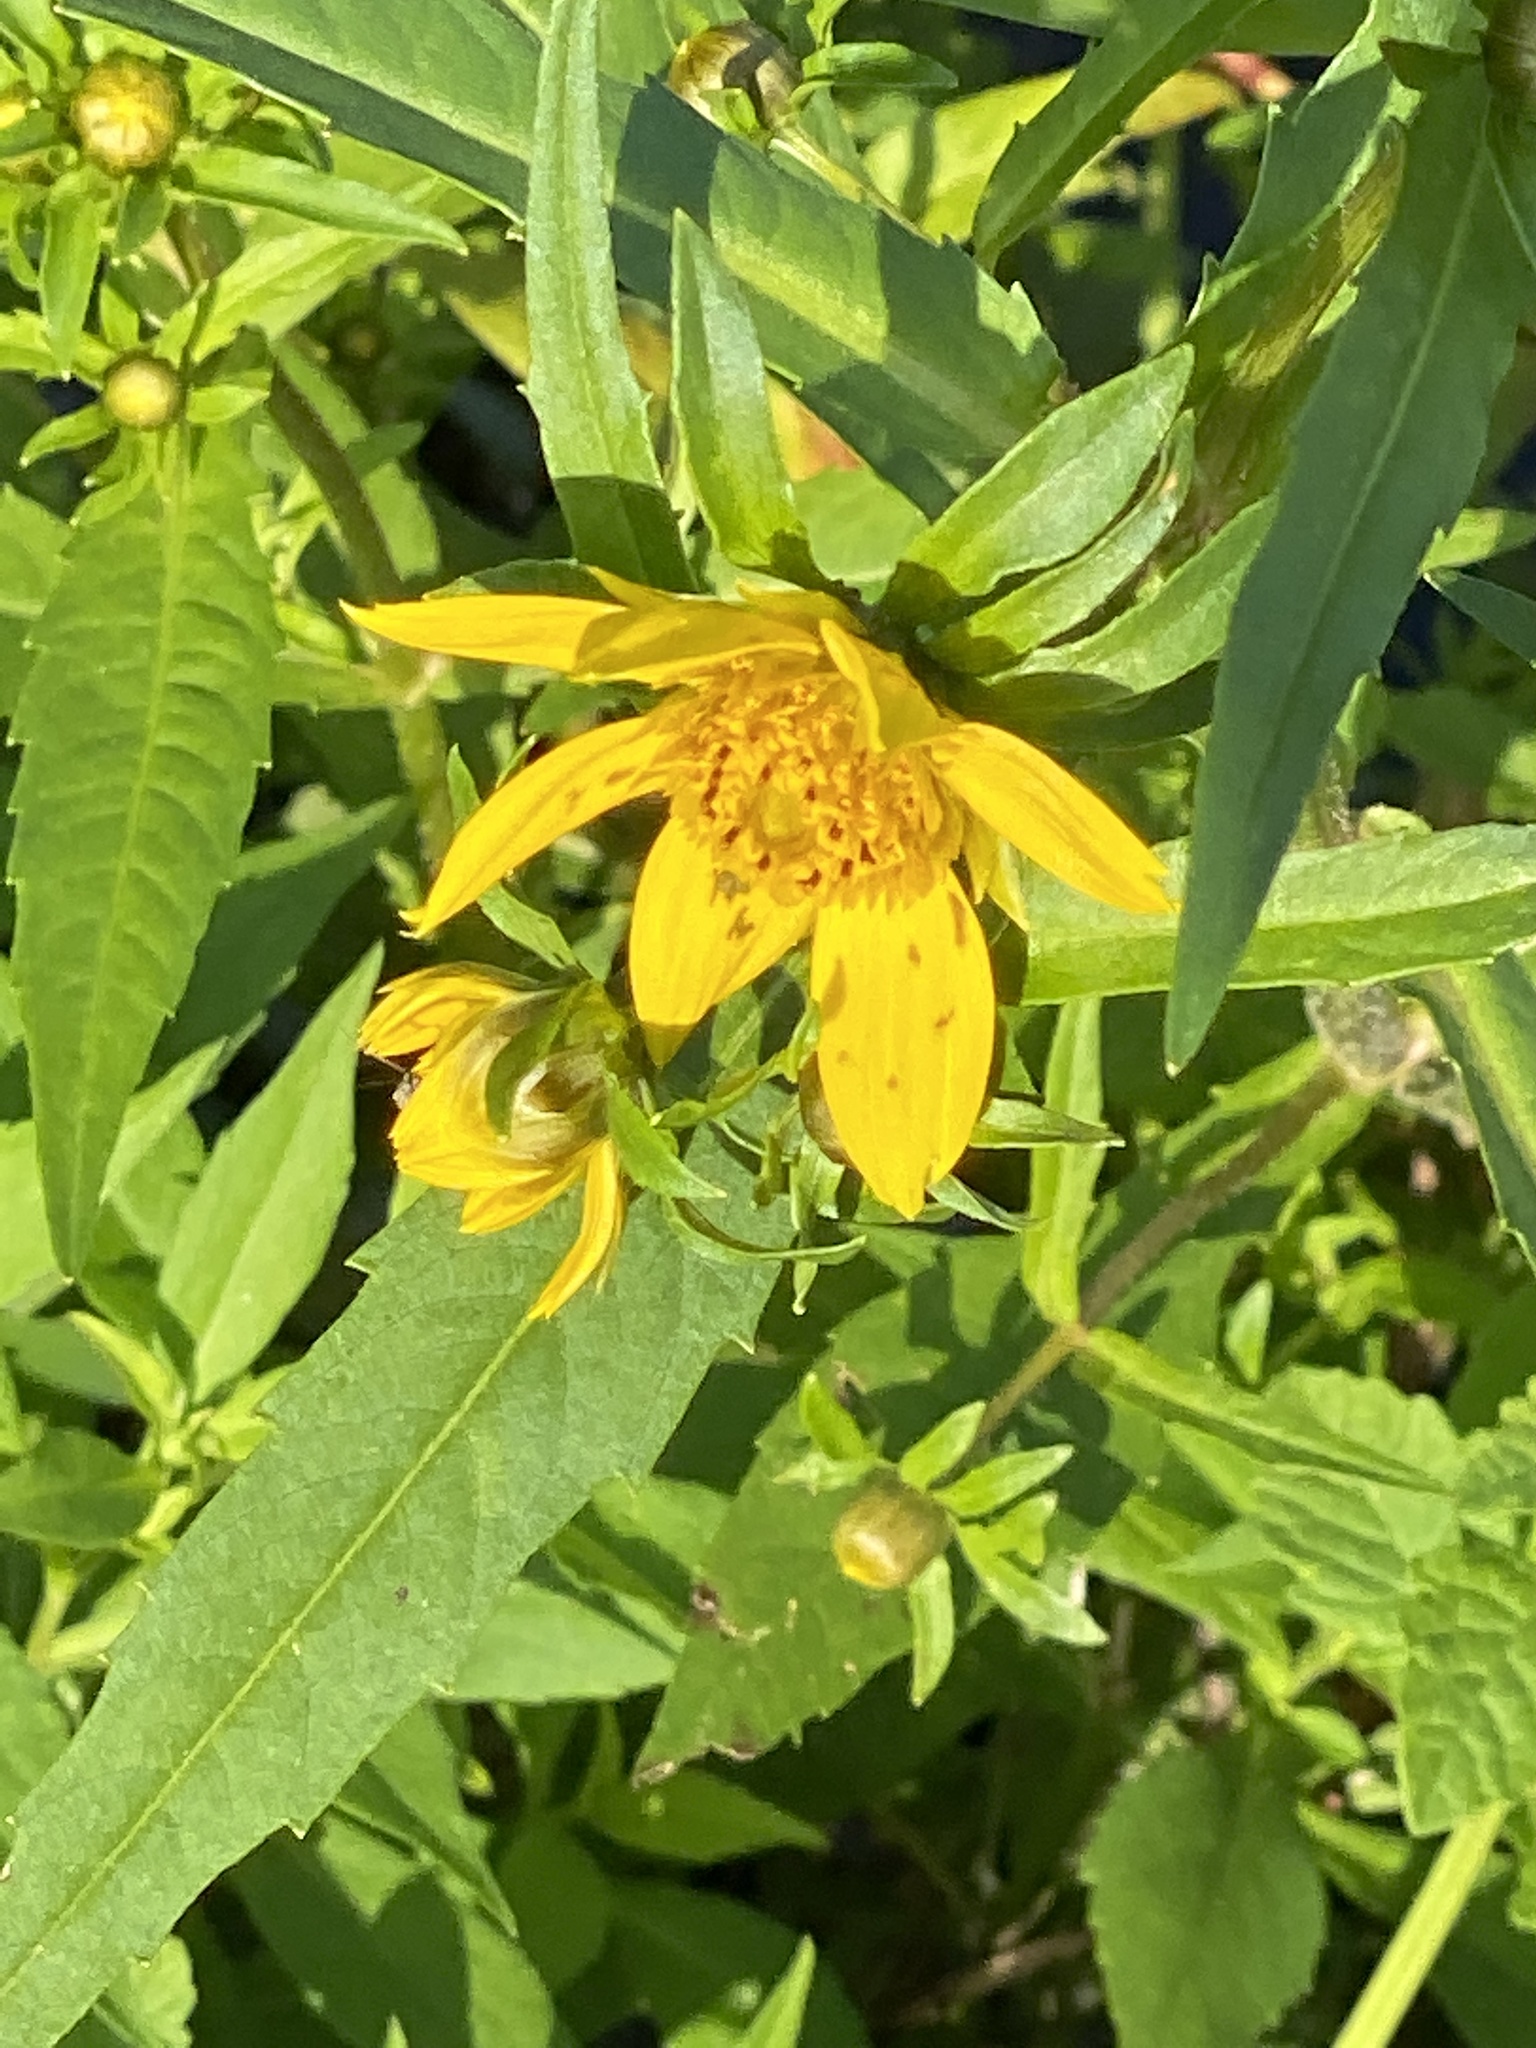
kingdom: Plantae
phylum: Tracheophyta
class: Magnoliopsida
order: Asterales
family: Asteraceae
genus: Bidens
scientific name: Bidens cernua
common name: Nodding bur-marigold
